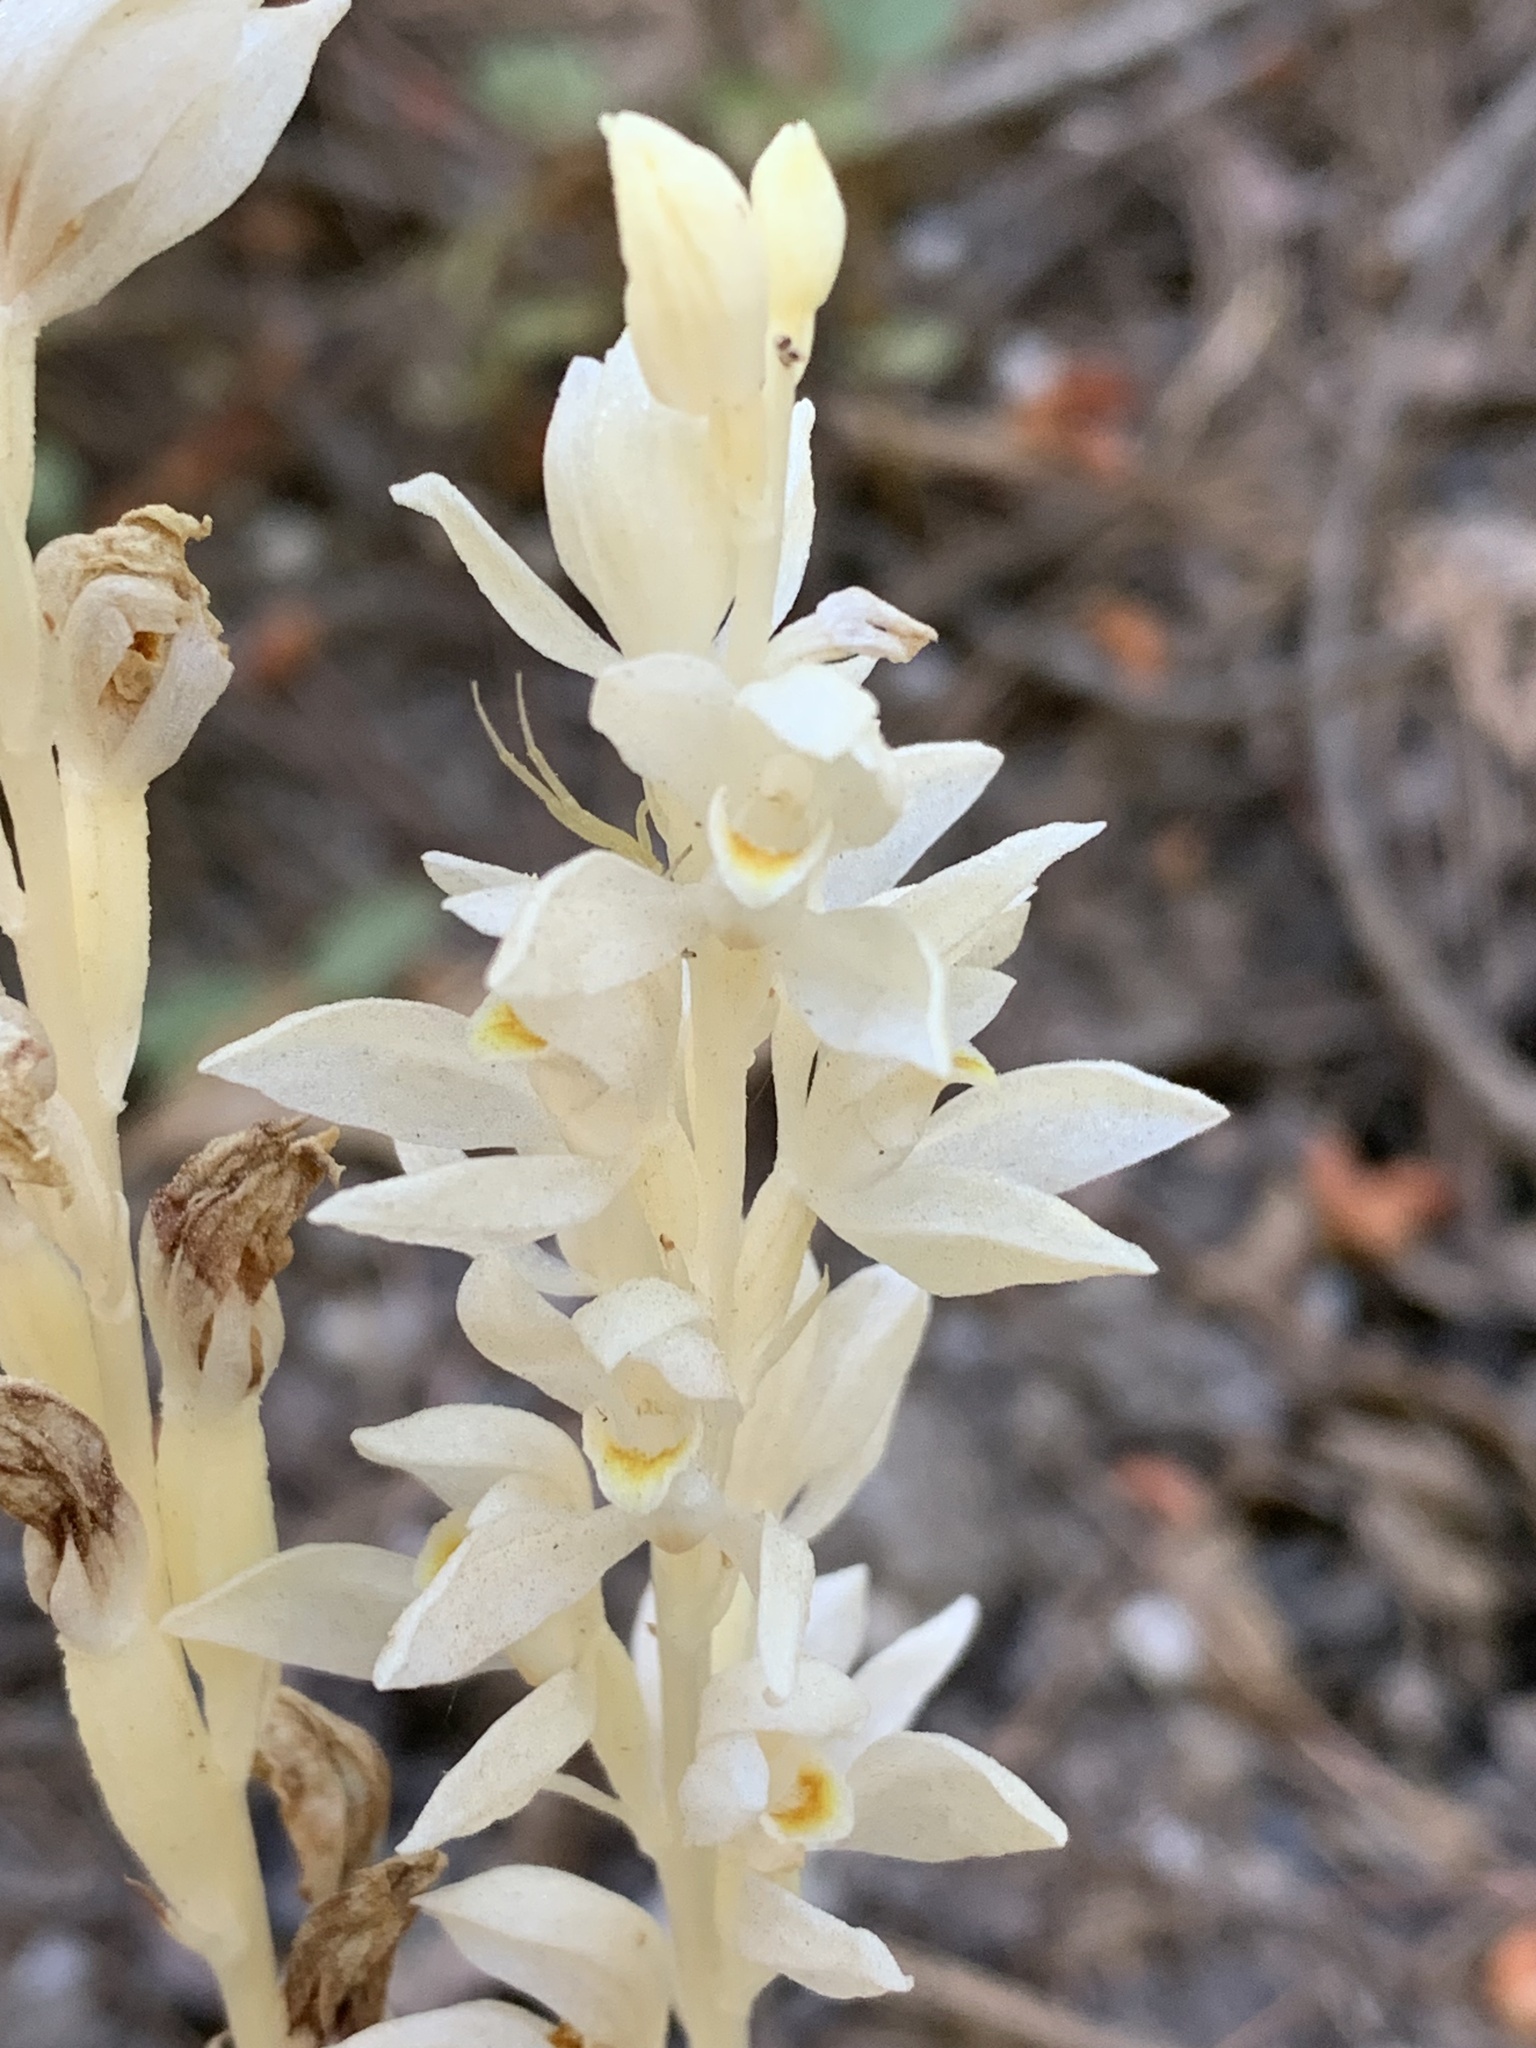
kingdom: Plantae
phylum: Tracheophyta
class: Liliopsida
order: Asparagales
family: Orchidaceae
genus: Cephalanthera
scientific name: Cephalanthera austiniae
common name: Phantom orchid
